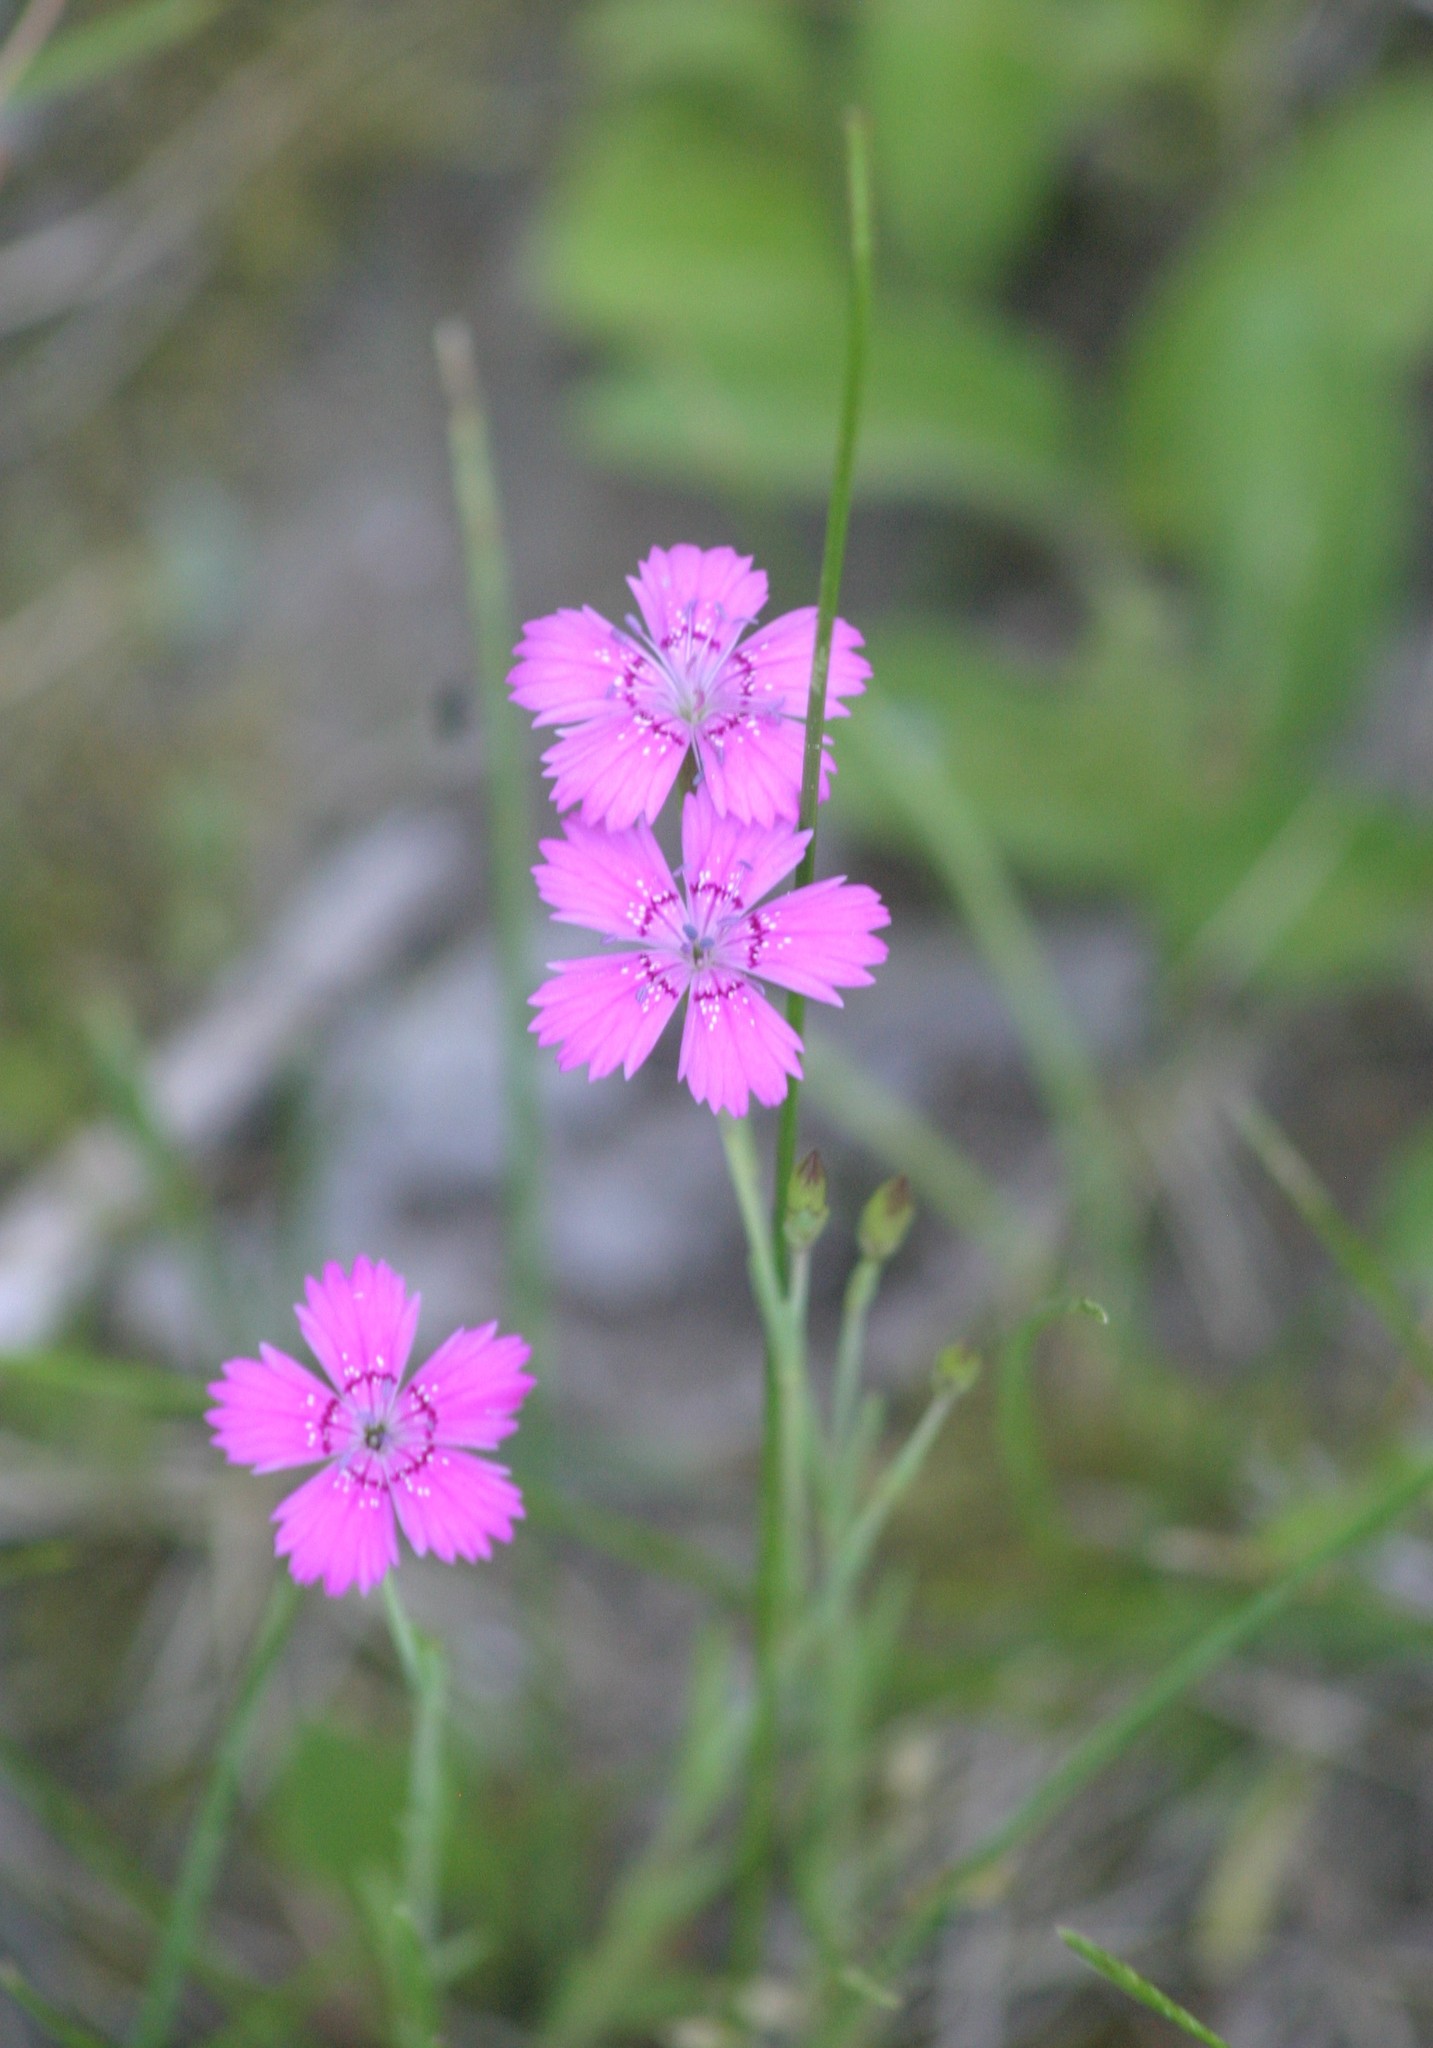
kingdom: Plantae
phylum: Tracheophyta
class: Magnoliopsida
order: Caryophyllales
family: Caryophyllaceae
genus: Dianthus
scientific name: Dianthus deltoides
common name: Maiden pink
